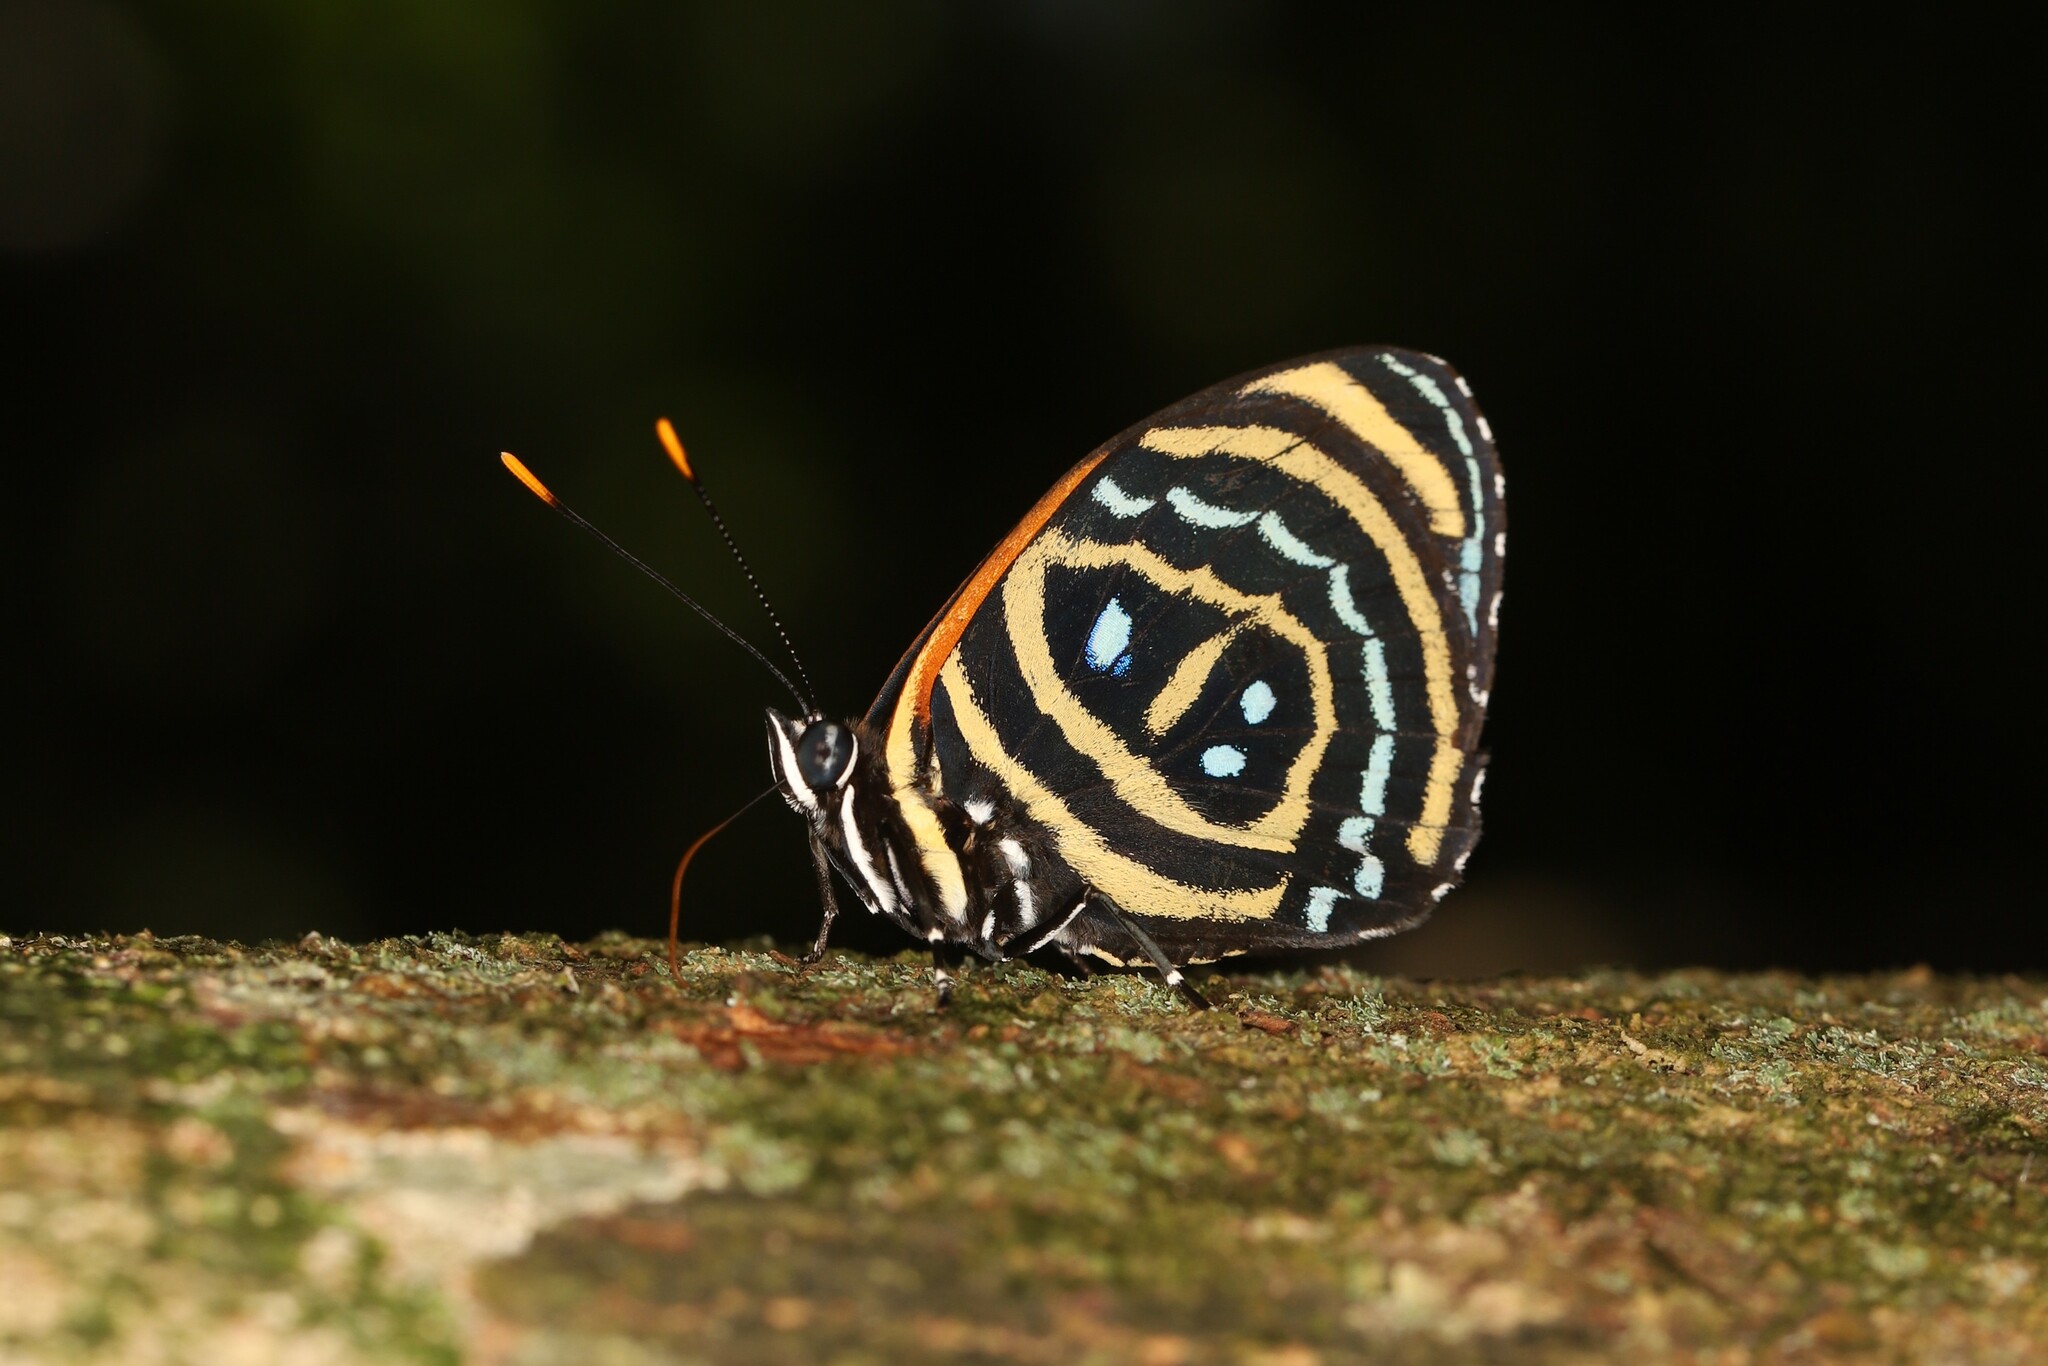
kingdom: Animalia
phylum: Arthropoda
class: Insecta
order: Lepidoptera
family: Nymphalidae
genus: Catagramma
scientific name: Catagramma Callicore excelsior
